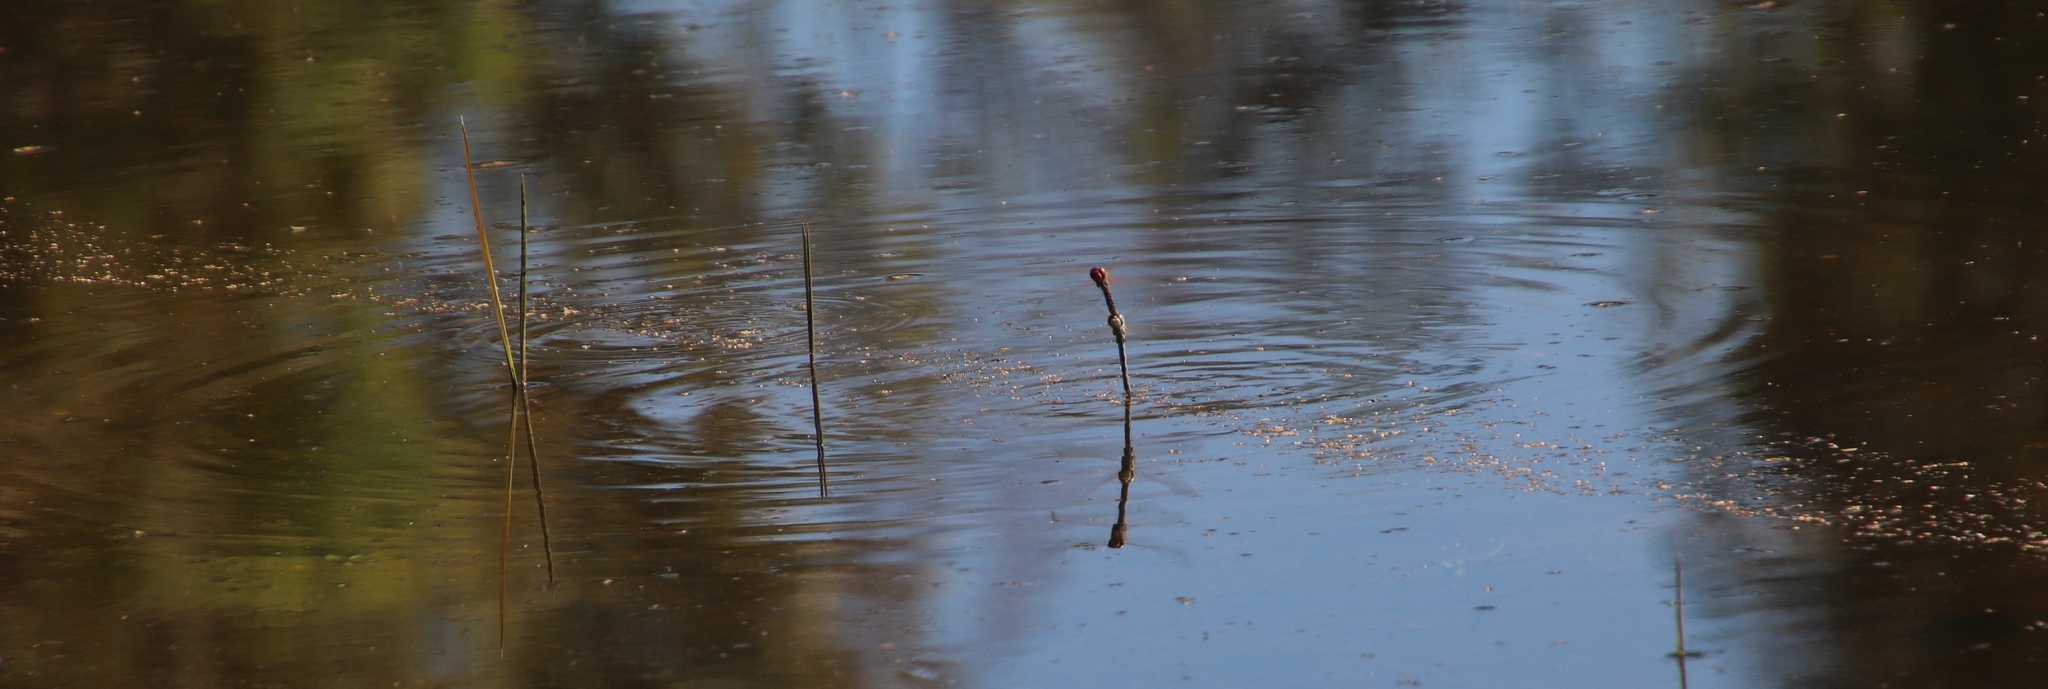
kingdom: Animalia
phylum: Arthropoda
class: Insecta
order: Odonata
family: Libellulidae
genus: Sympetrum
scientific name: Sympetrum fonscolombii
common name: Red-veined darter
